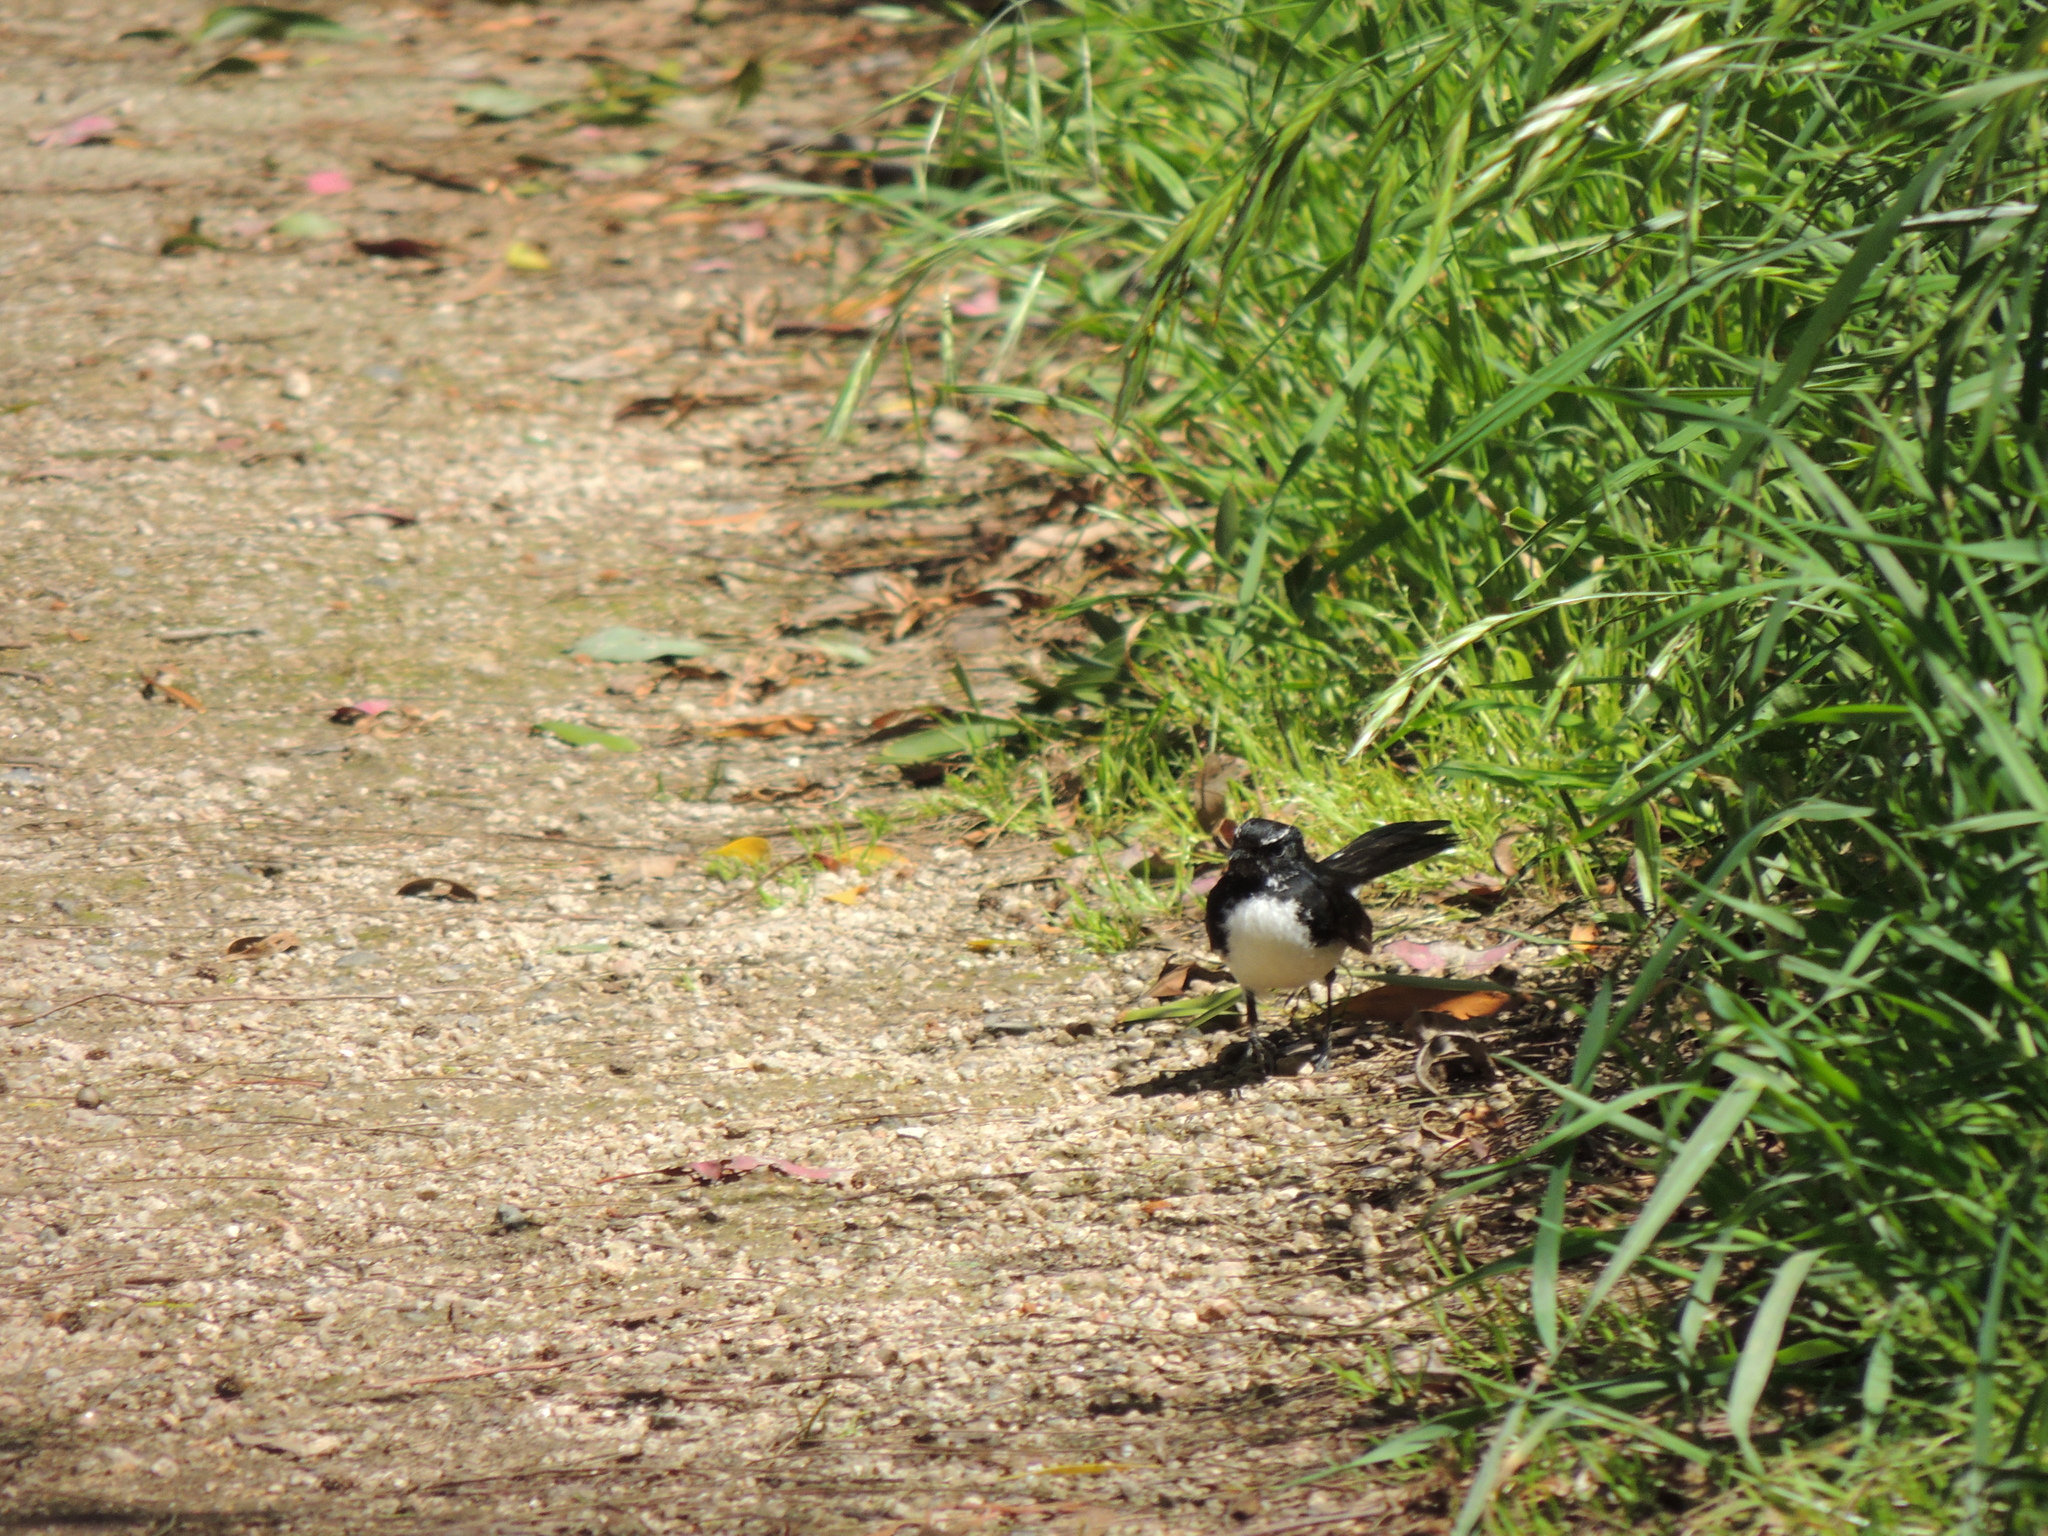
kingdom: Animalia
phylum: Chordata
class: Aves
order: Passeriformes
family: Rhipiduridae
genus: Rhipidura
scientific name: Rhipidura leucophrys
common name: Willie wagtail
